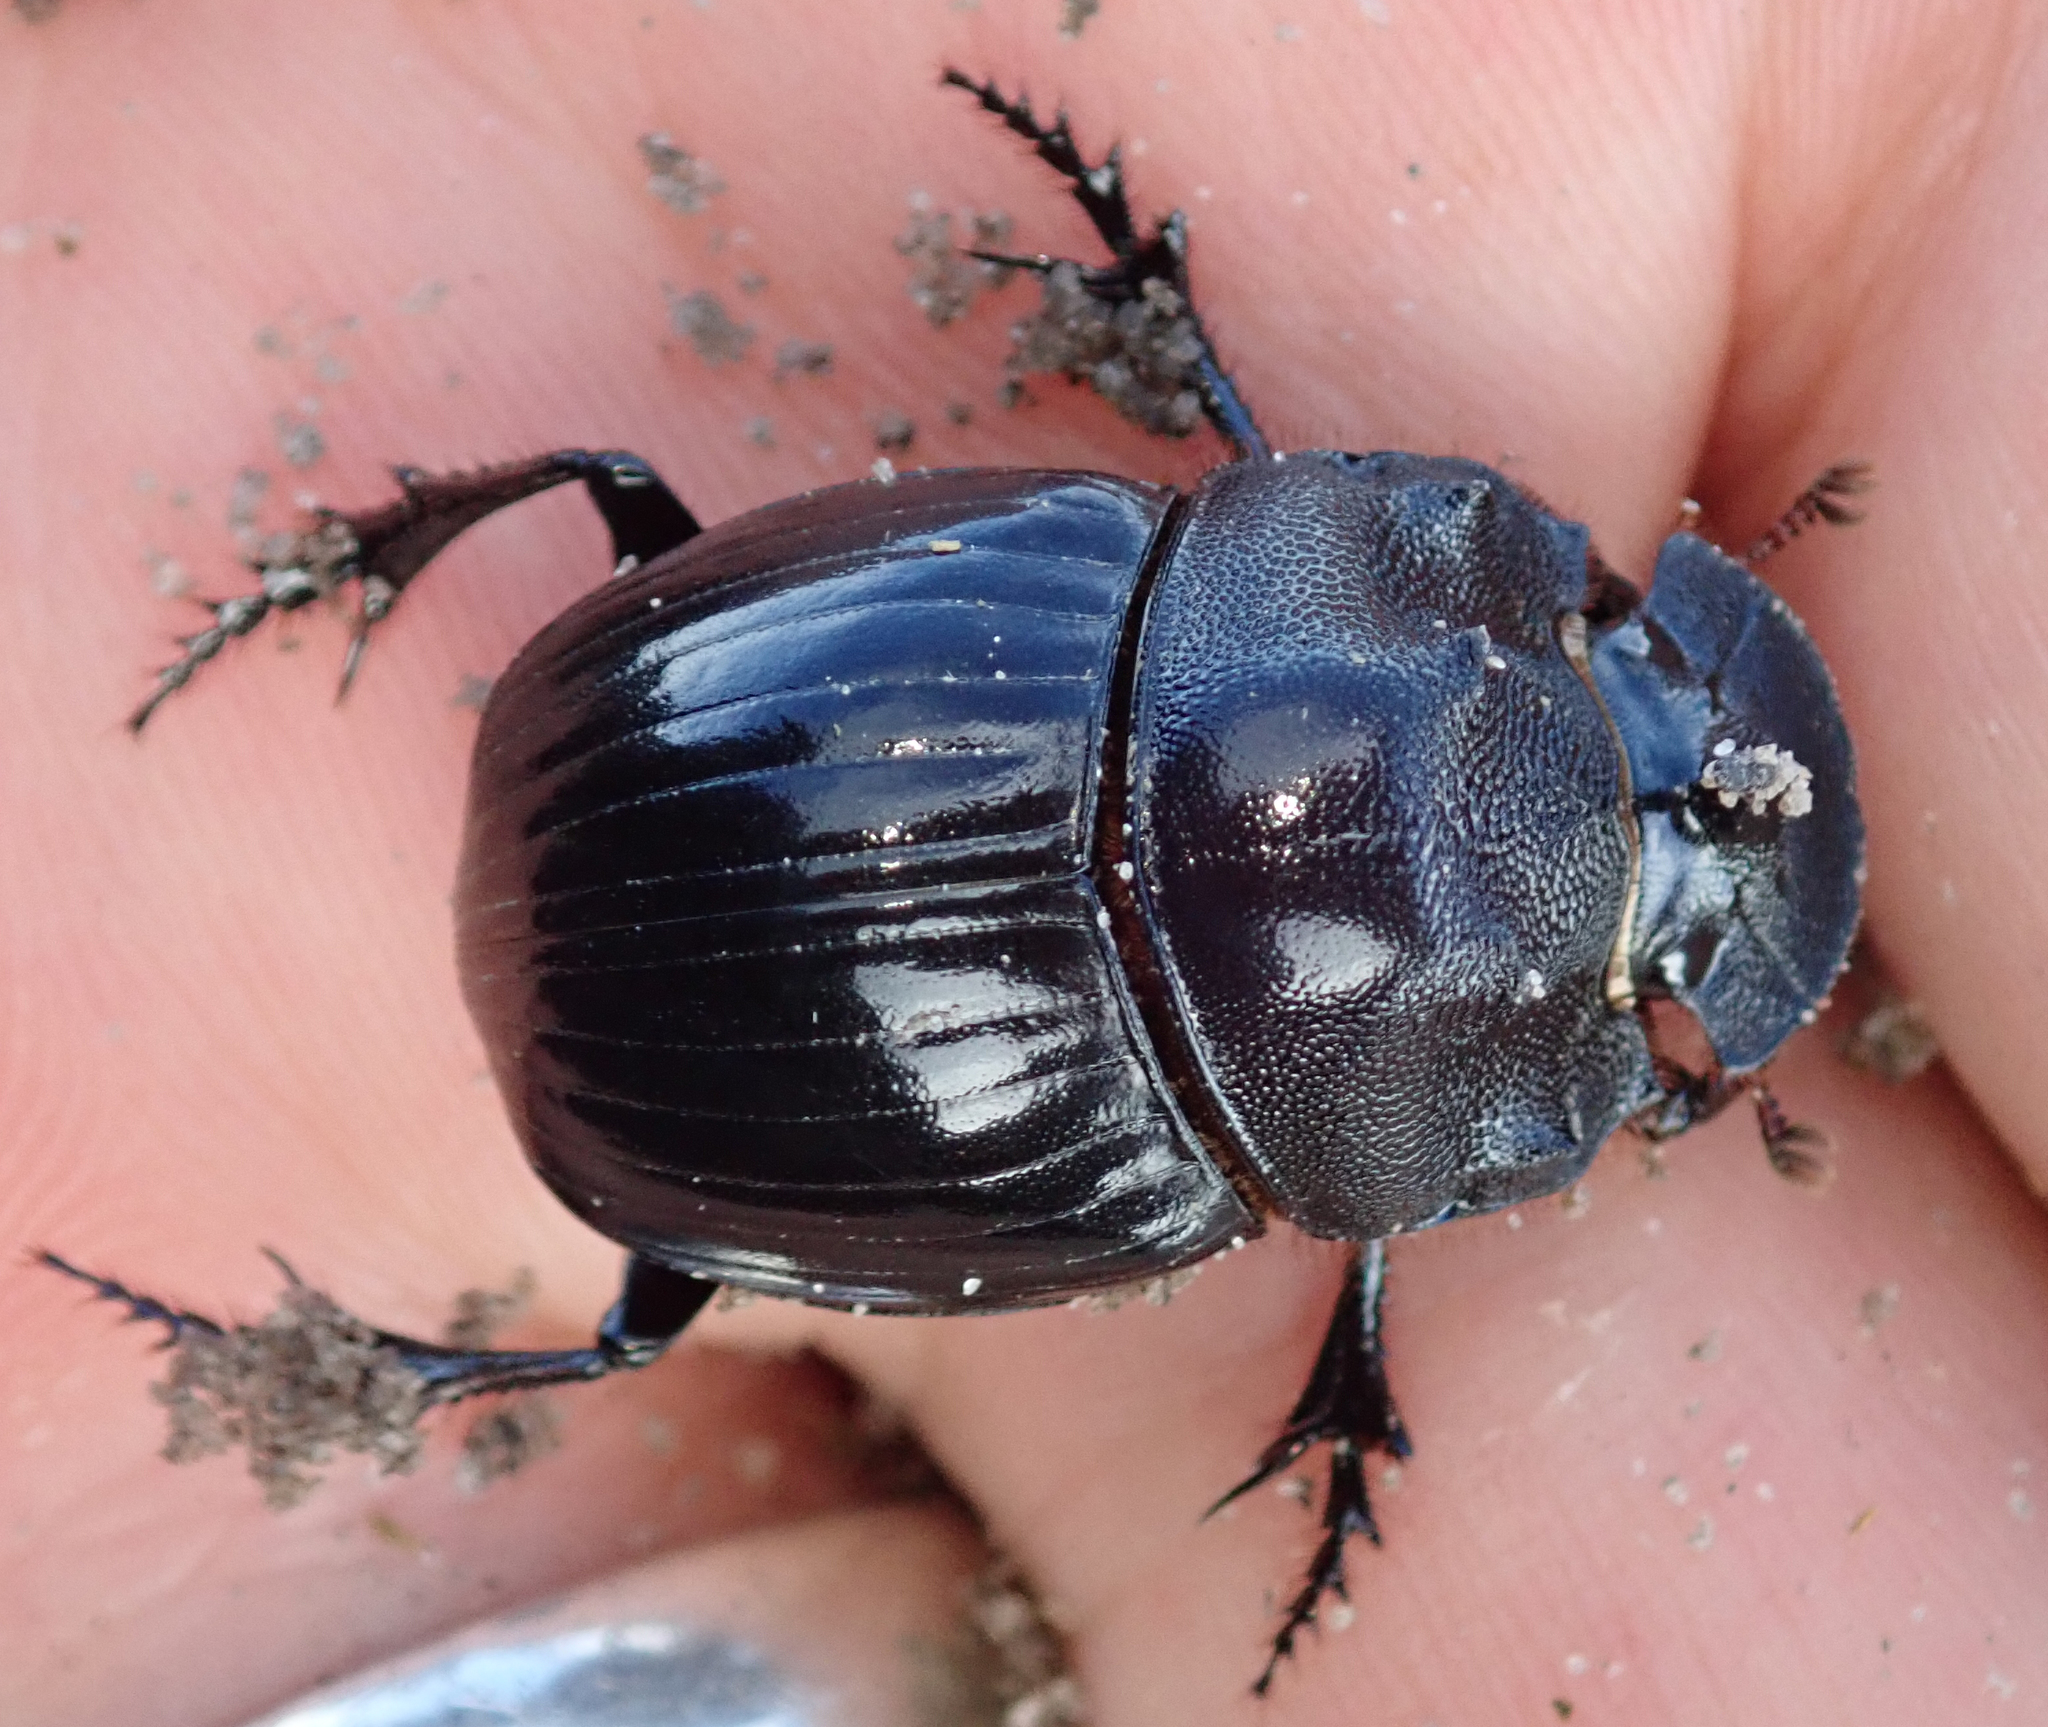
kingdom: Animalia
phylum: Arthropoda
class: Insecta
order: Coleoptera
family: Scarabaeidae
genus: Copris
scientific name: Copris elphenor
